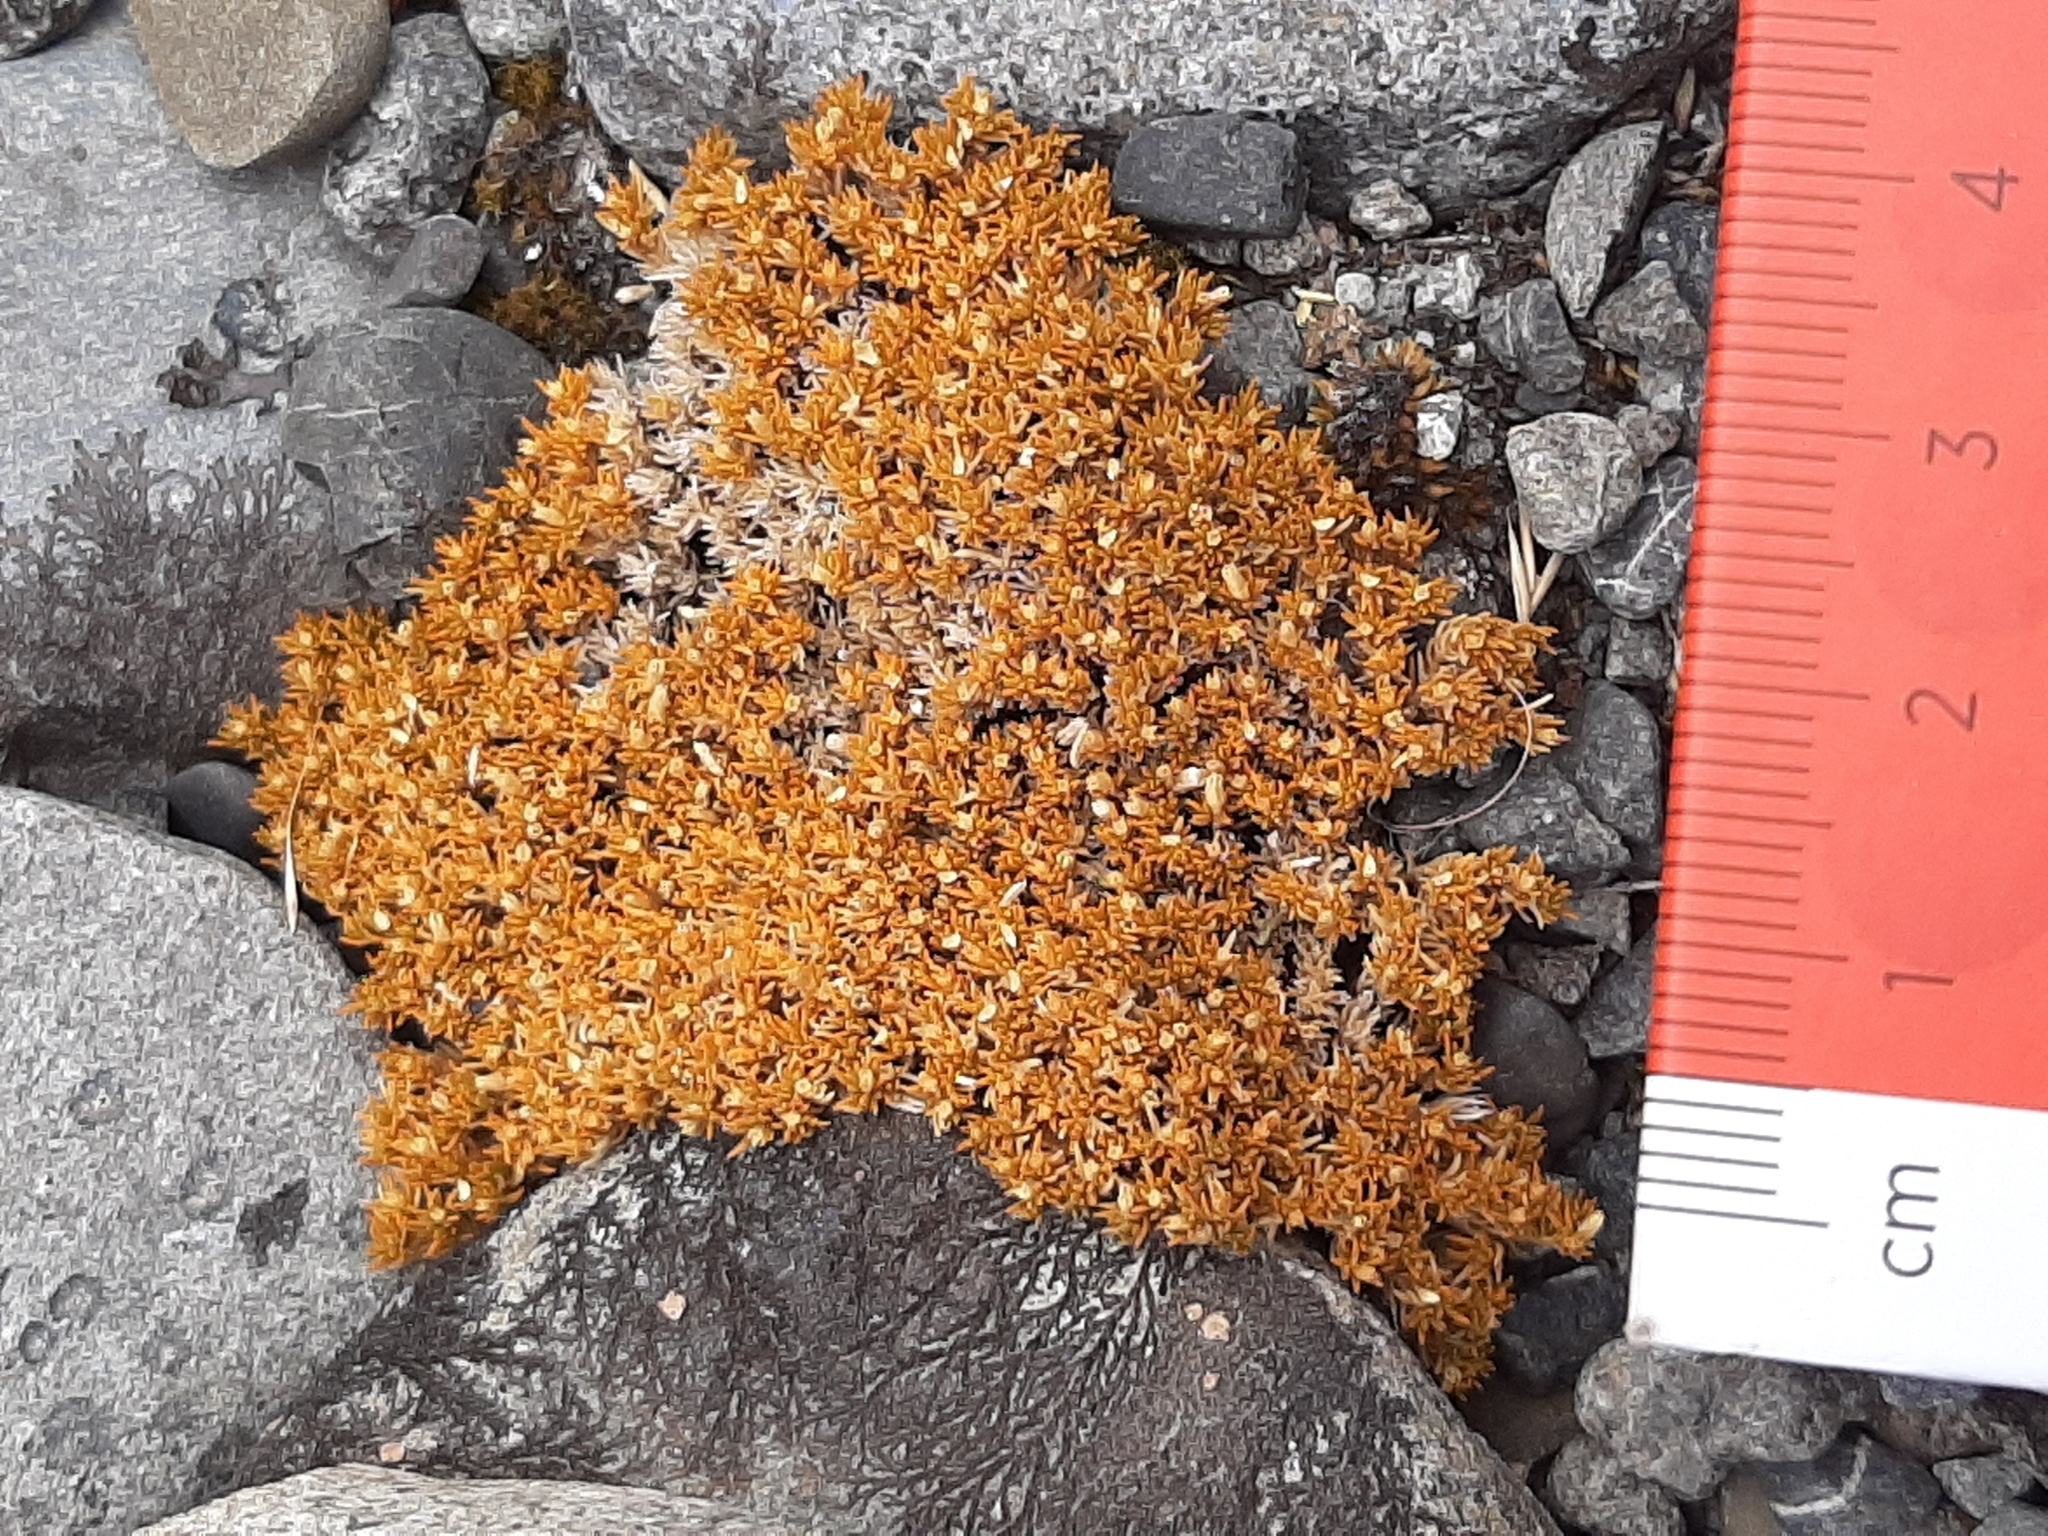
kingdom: Plantae
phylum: Tracheophyta
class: Magnoliopsida
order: Caryophyllales
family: Caryophyllaceae
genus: Scleranthus
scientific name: Scleranthus uniflorus
